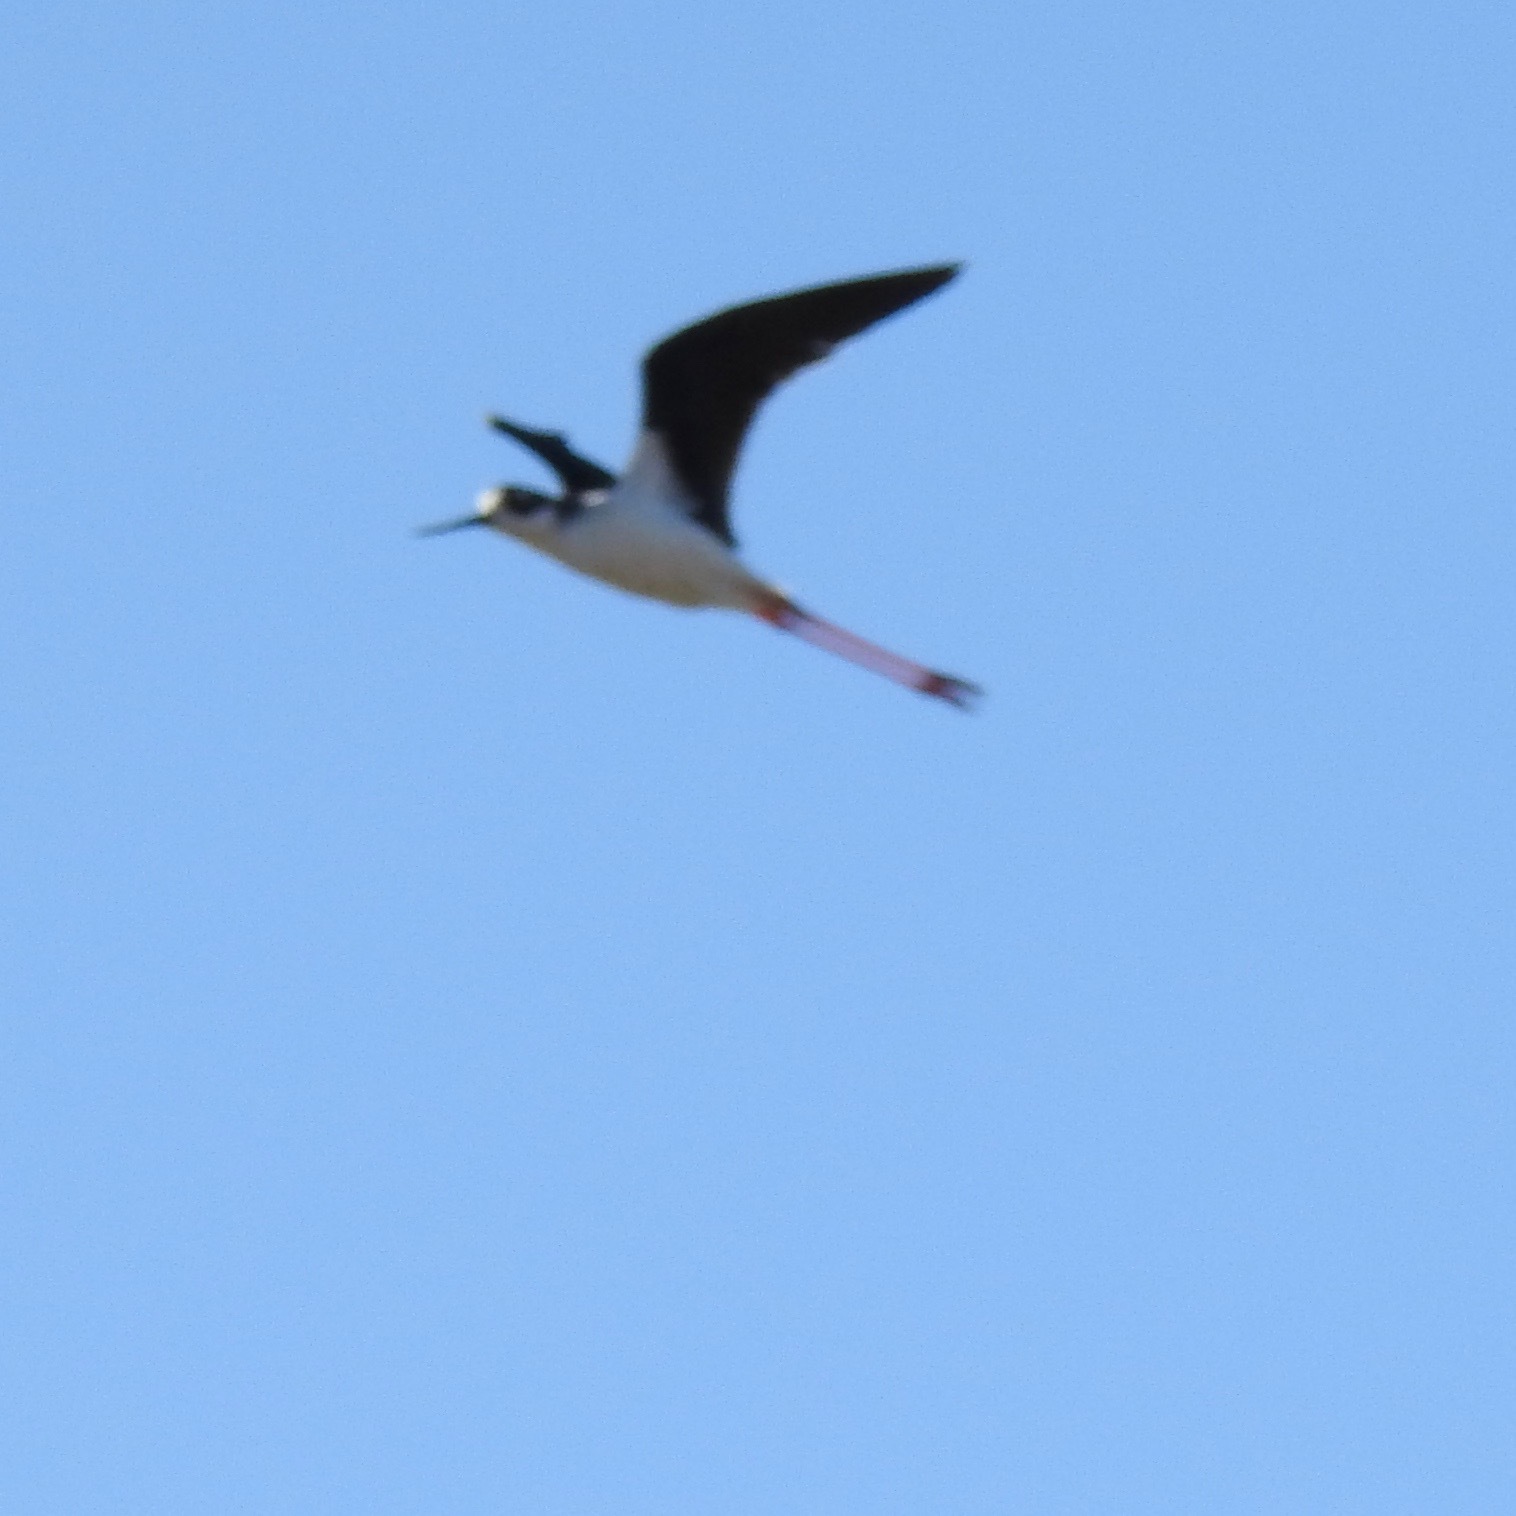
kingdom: Animalia
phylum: Chordata
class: Aves
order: Charadriiformes
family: Recurvirostridae
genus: Himantopus
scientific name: Himantopus mexicanus
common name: Black-necked stilt
